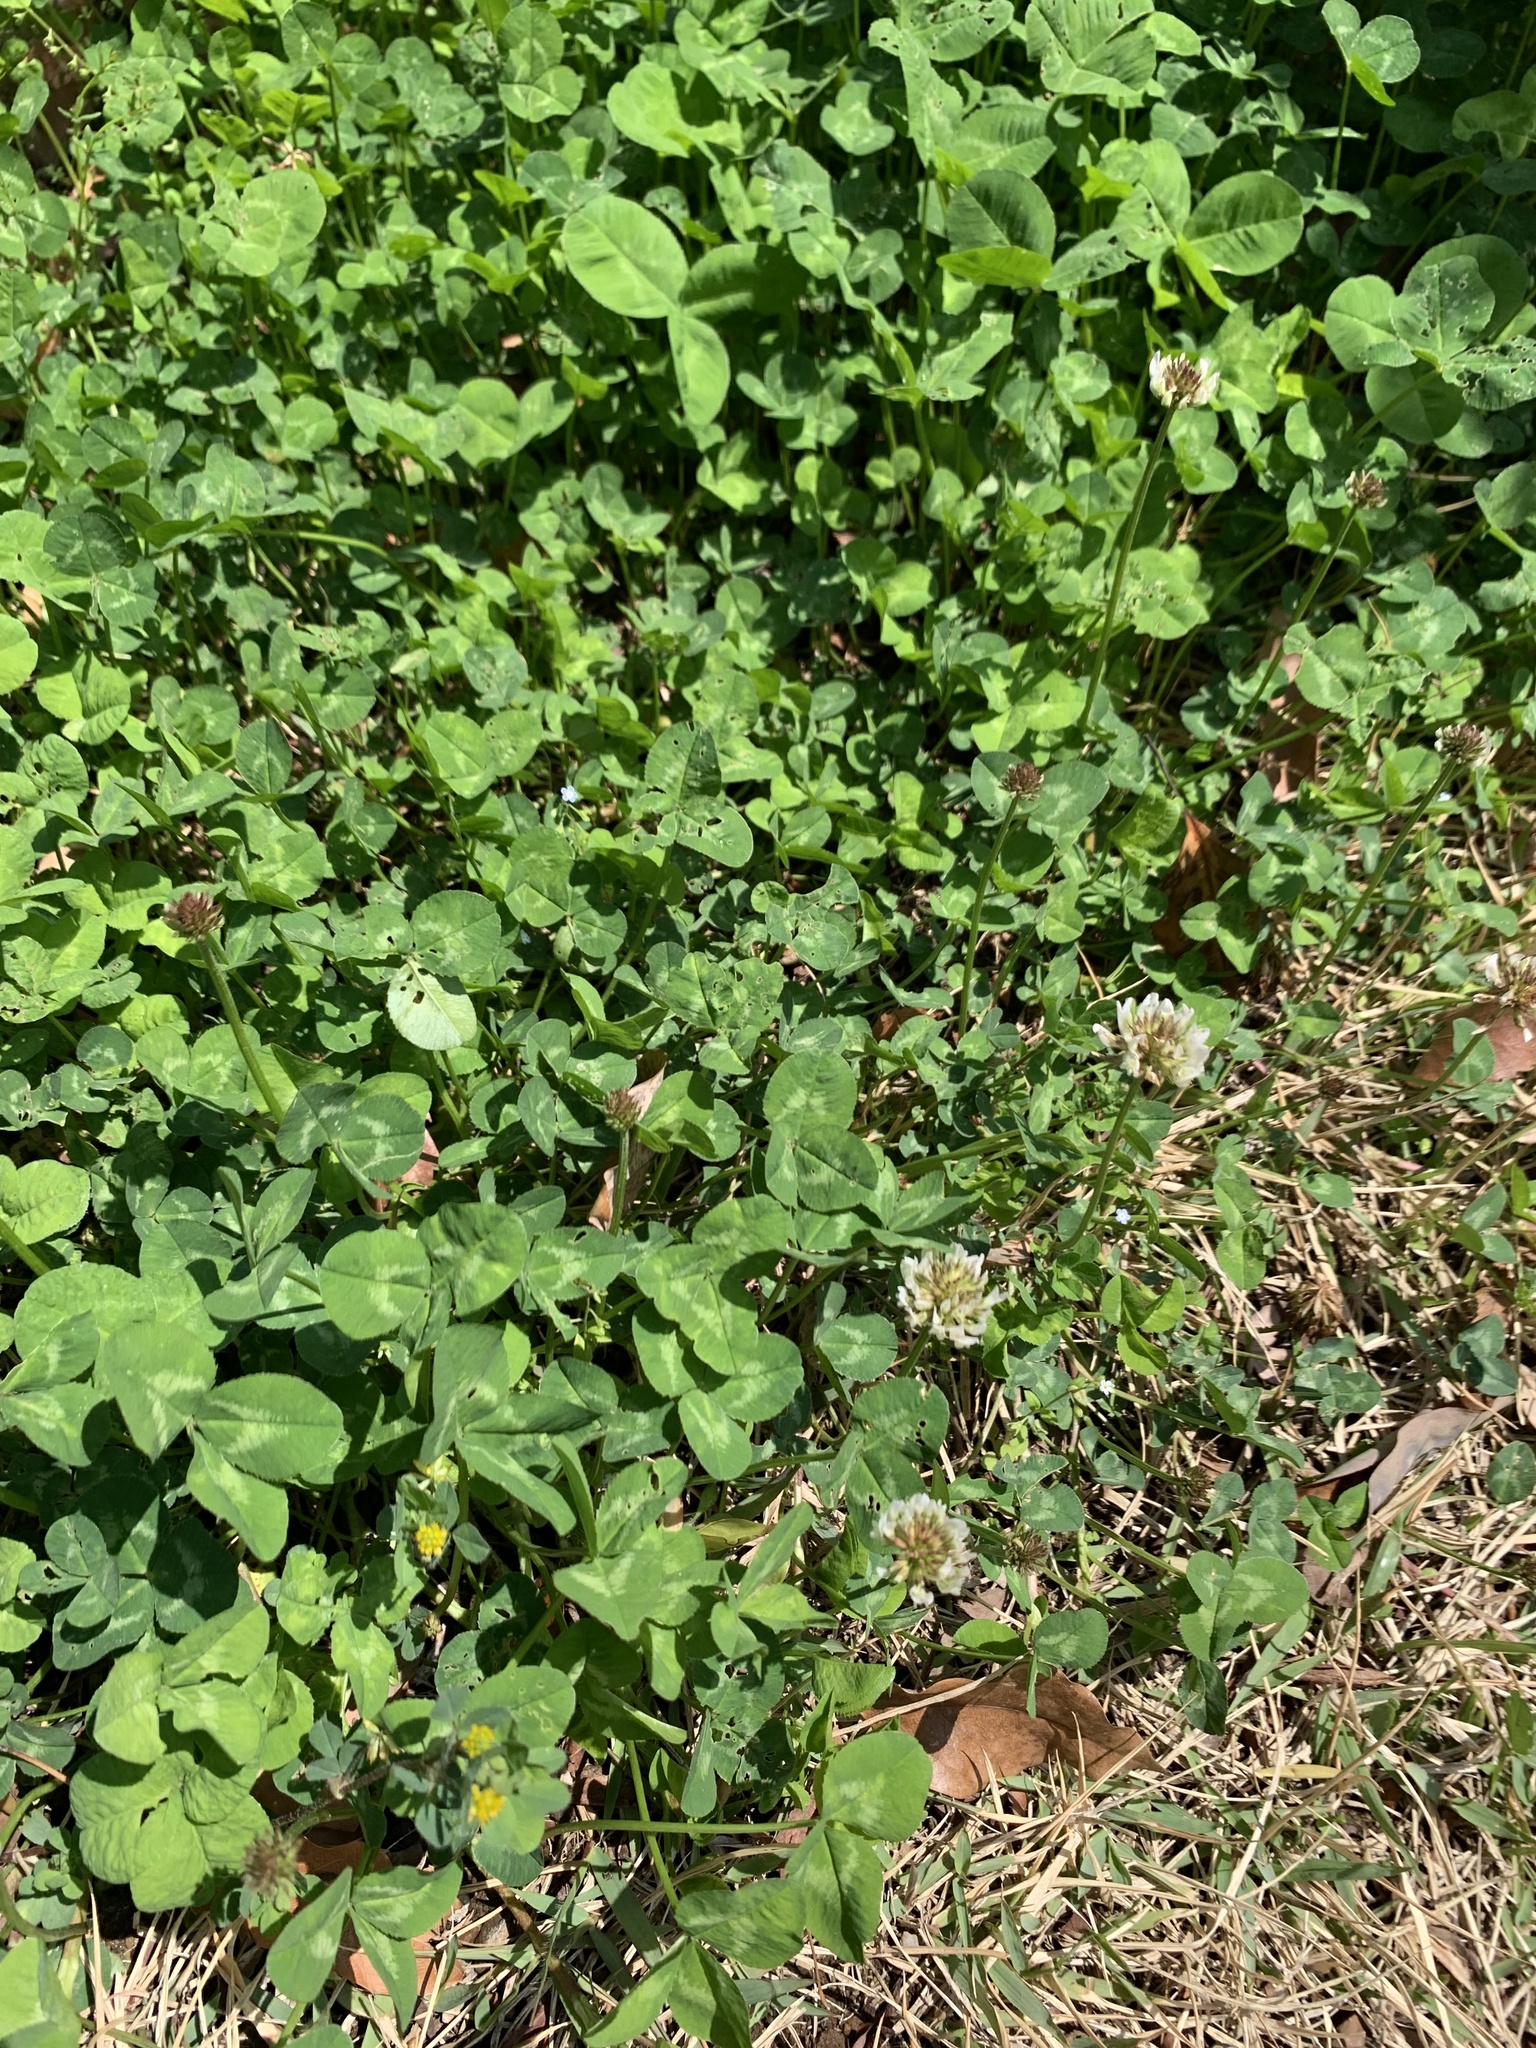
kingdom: Plantae
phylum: Tracheophyta
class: Magnoliopsida
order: Fabales
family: Fabaceae
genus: Trifolium
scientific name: Trifolium repens
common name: White clover
